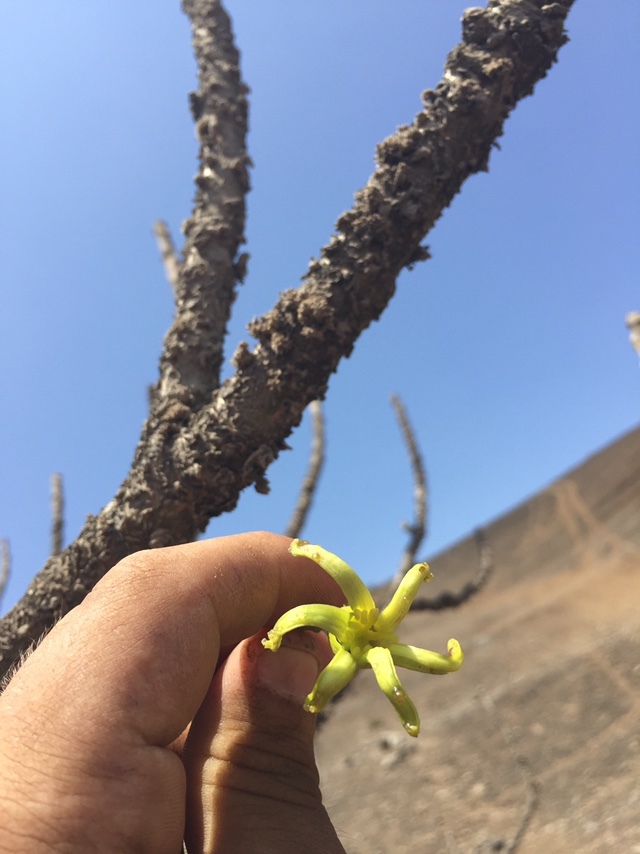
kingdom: Plantae
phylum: Tracheophyta
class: Magnoliopsida
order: Brassicales
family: Caricaceae
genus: Vasconcellea
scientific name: Vasconcellea candicans
